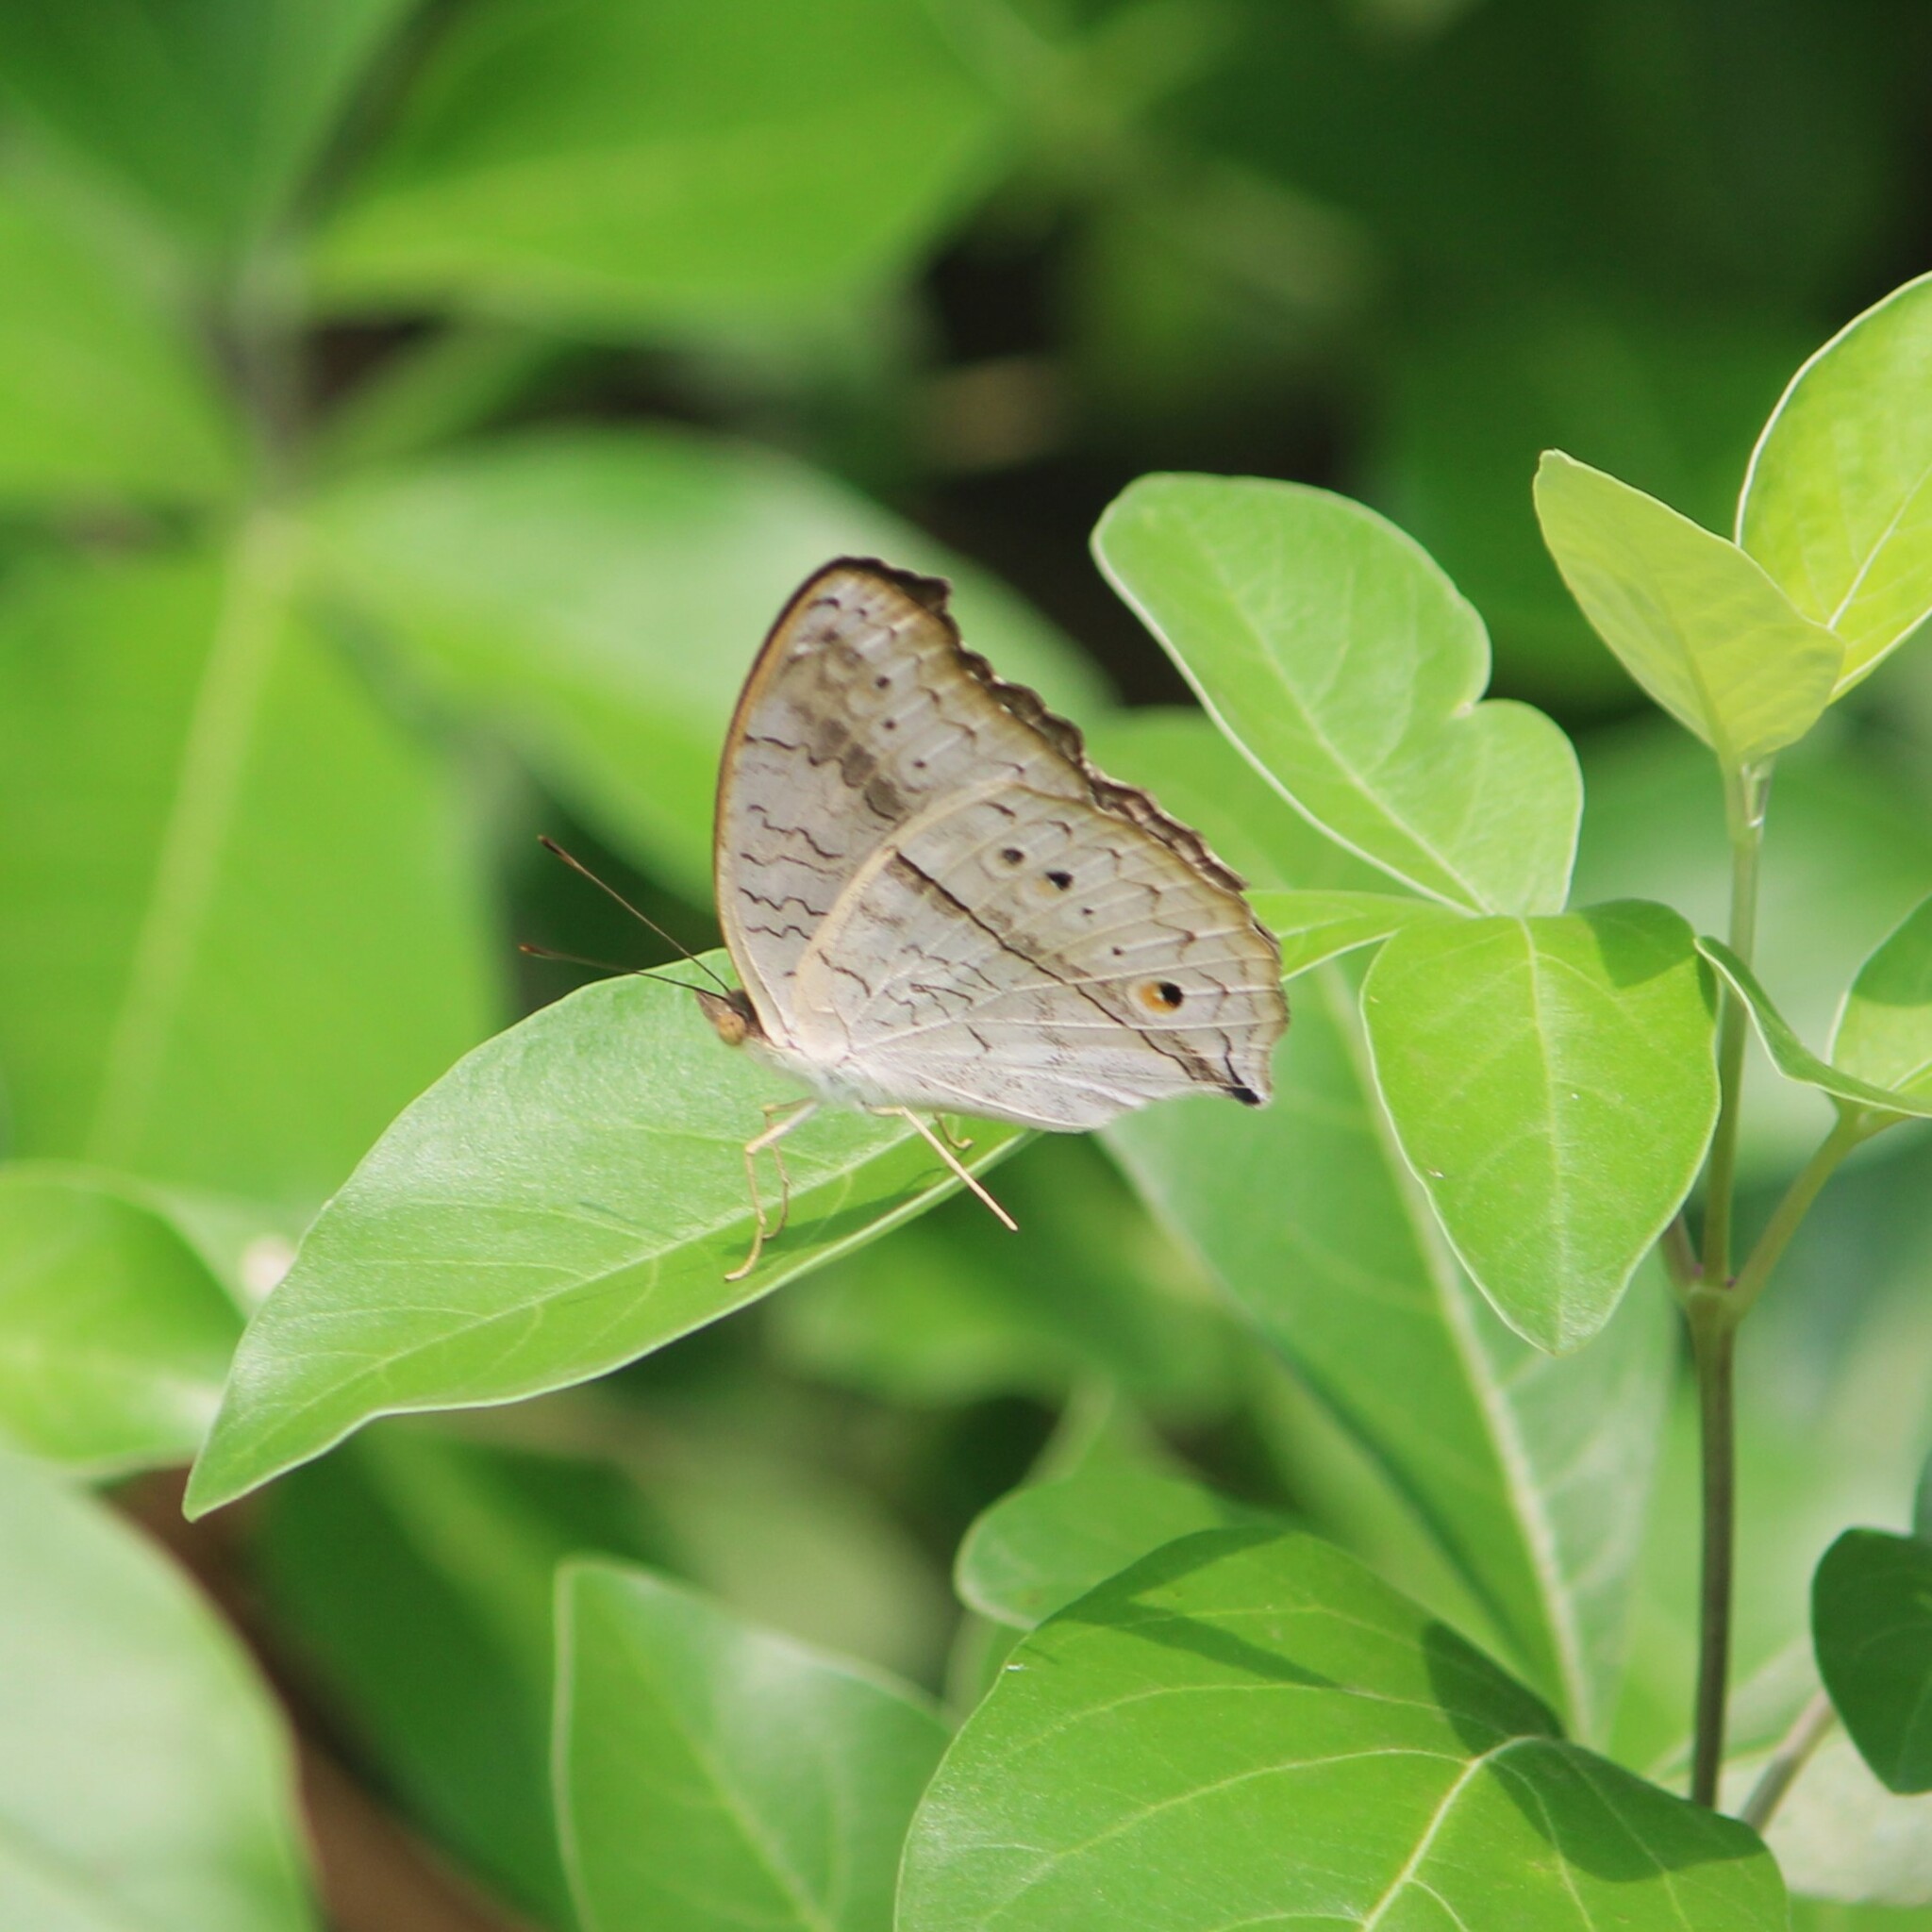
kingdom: Animalia
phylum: Arthropoda
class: Insecta
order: Lepidoptera
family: Nymphalidae
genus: Junonia
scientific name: Junonia atlites
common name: Grey pansy
